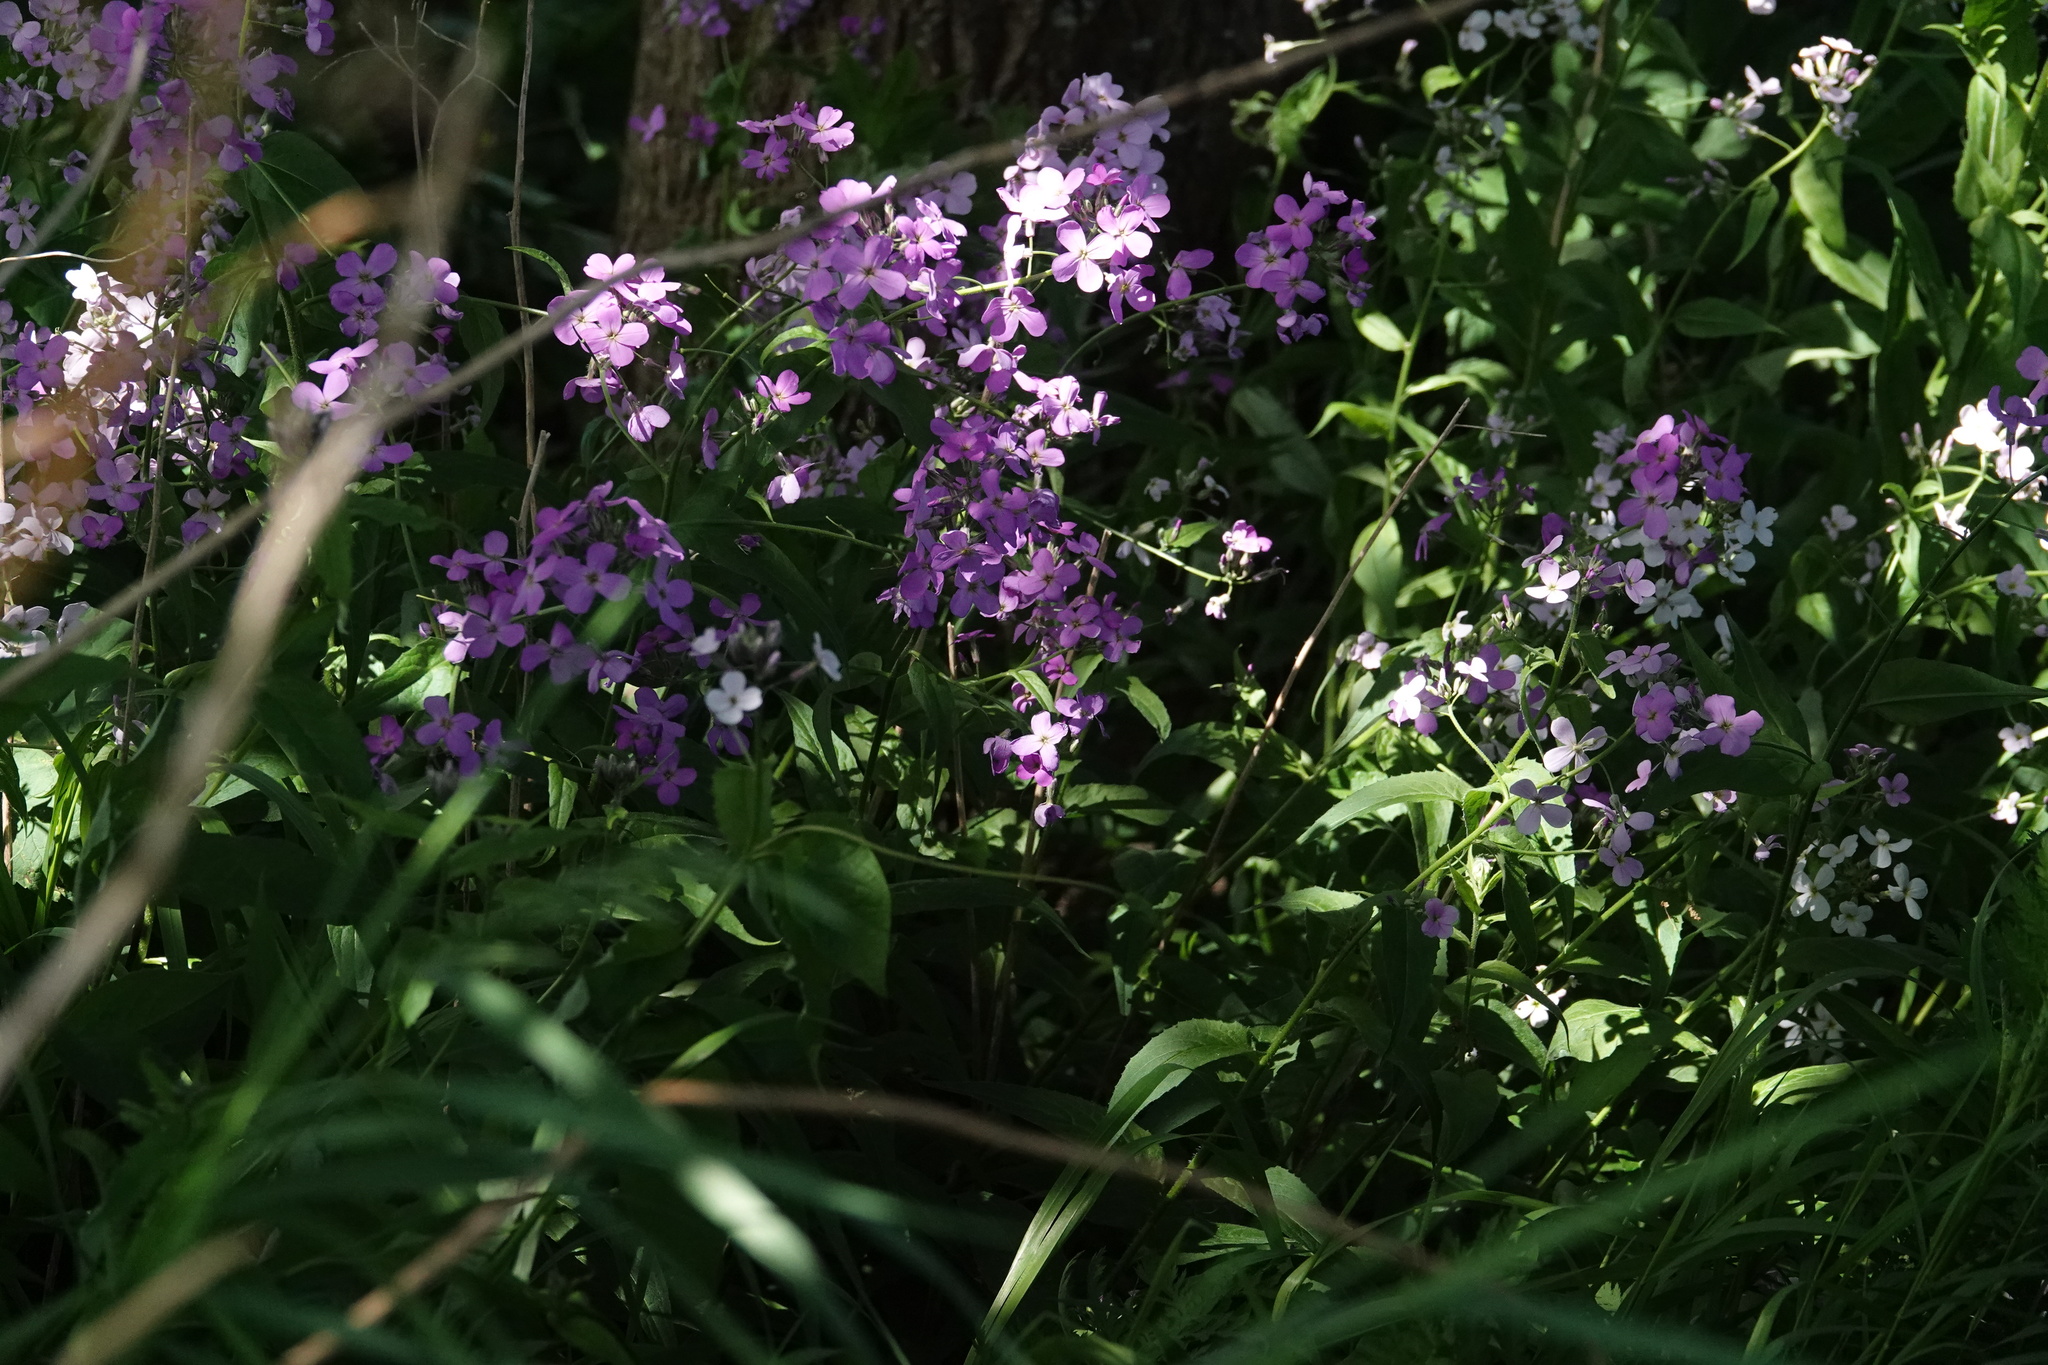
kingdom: Plantae
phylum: Tracheophyta
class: Magnoliopsida
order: Brassicales
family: Brassicaceae
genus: Hesperis
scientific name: Hesperis matronalis
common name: Dame's-violet
